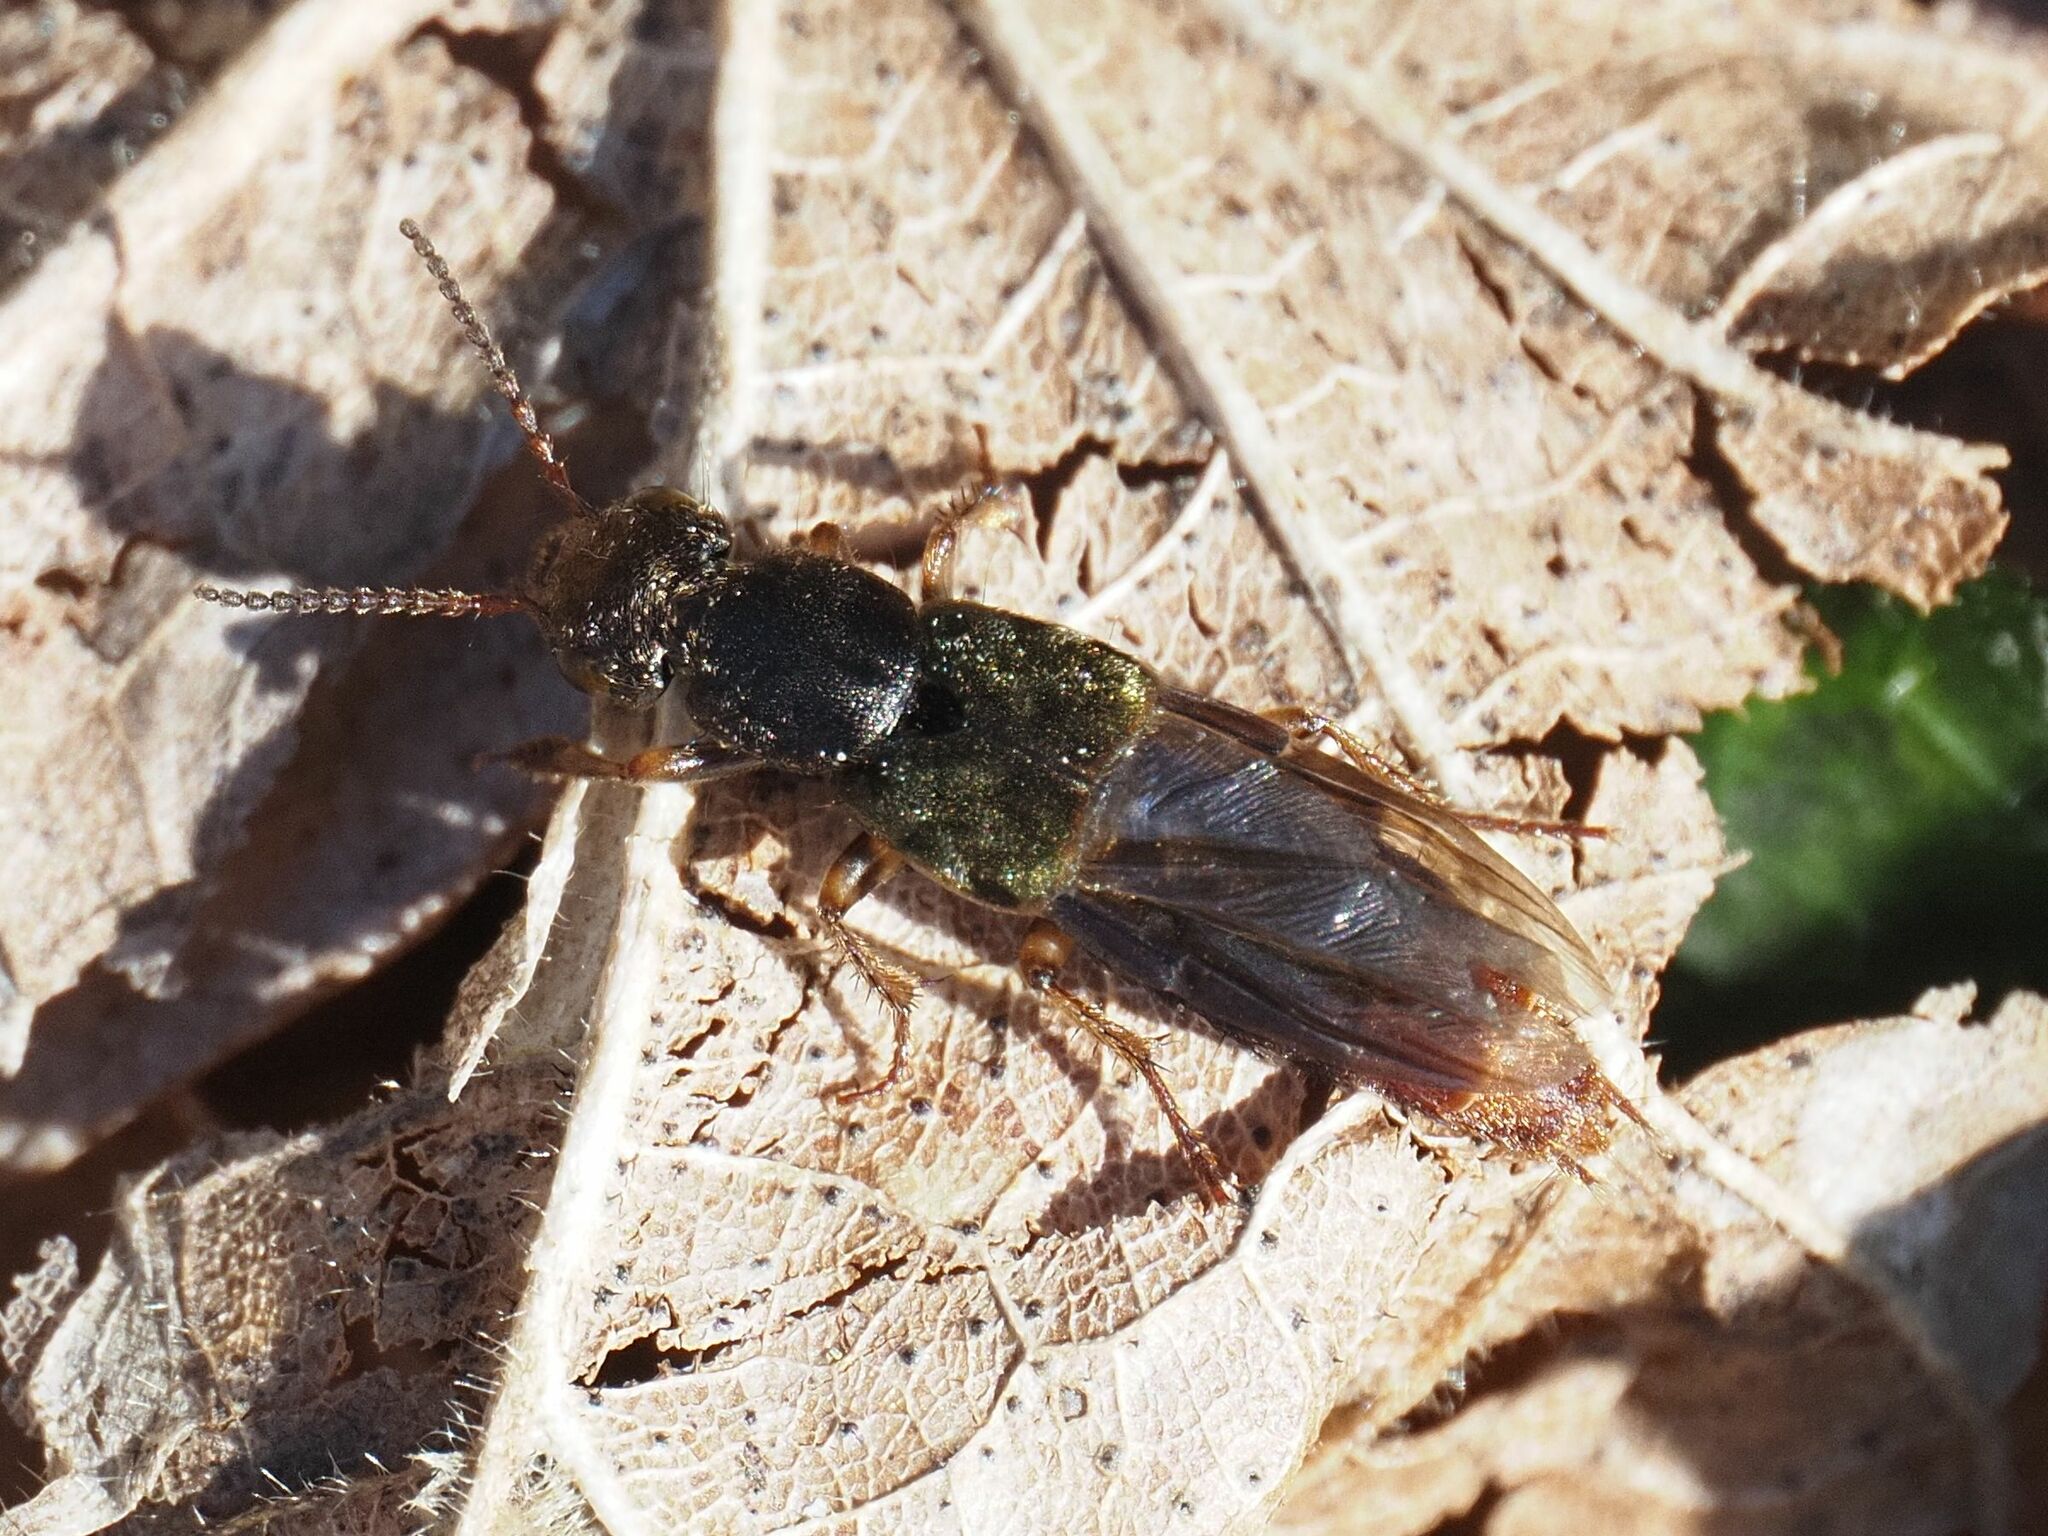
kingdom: Animalia
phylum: Arthropoda
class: Insecta
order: Coleoptera
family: Staphylinidae
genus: Abemus
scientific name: Abemus chloropterus
